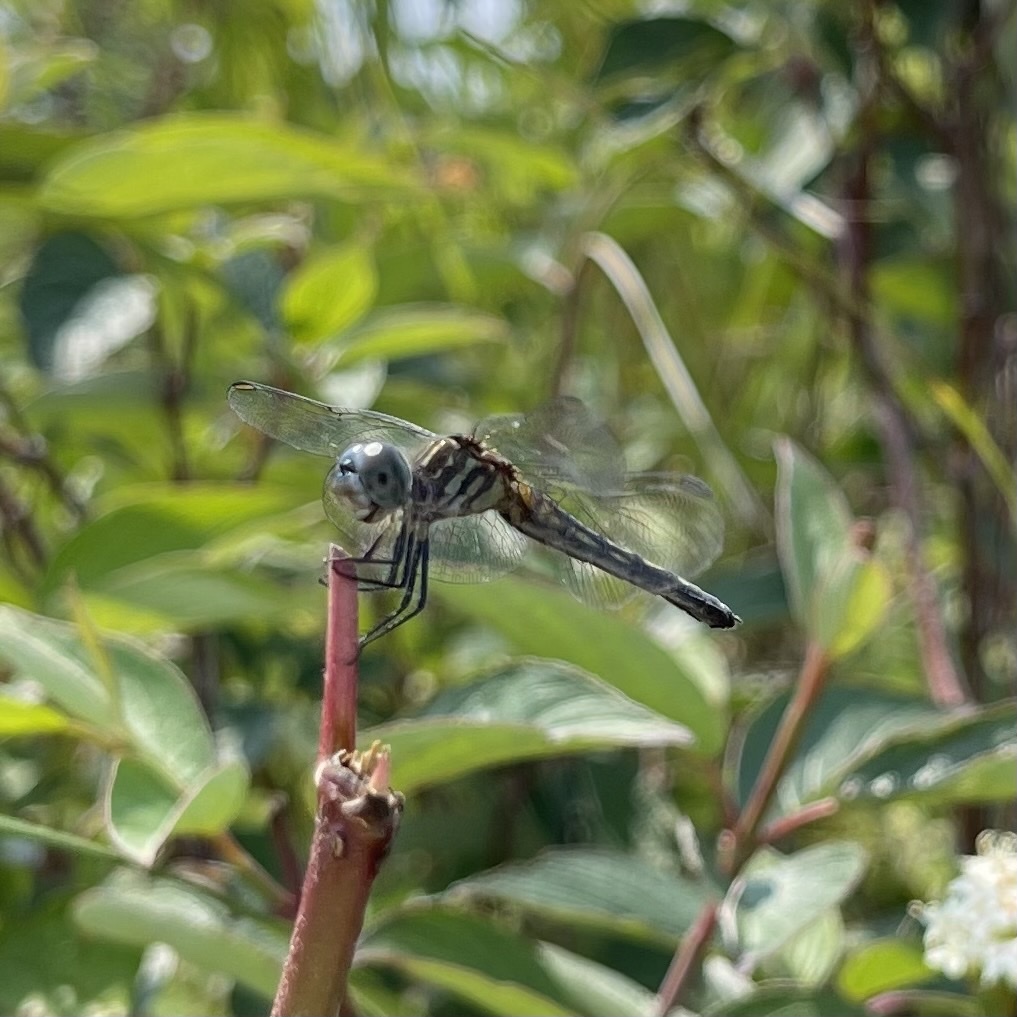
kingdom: Animalia
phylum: Arthropoda
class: Insecta
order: Odonata
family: Libellulidae
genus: Pachydiplax
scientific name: Pachydiplax longipennis
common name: Blue dasher
